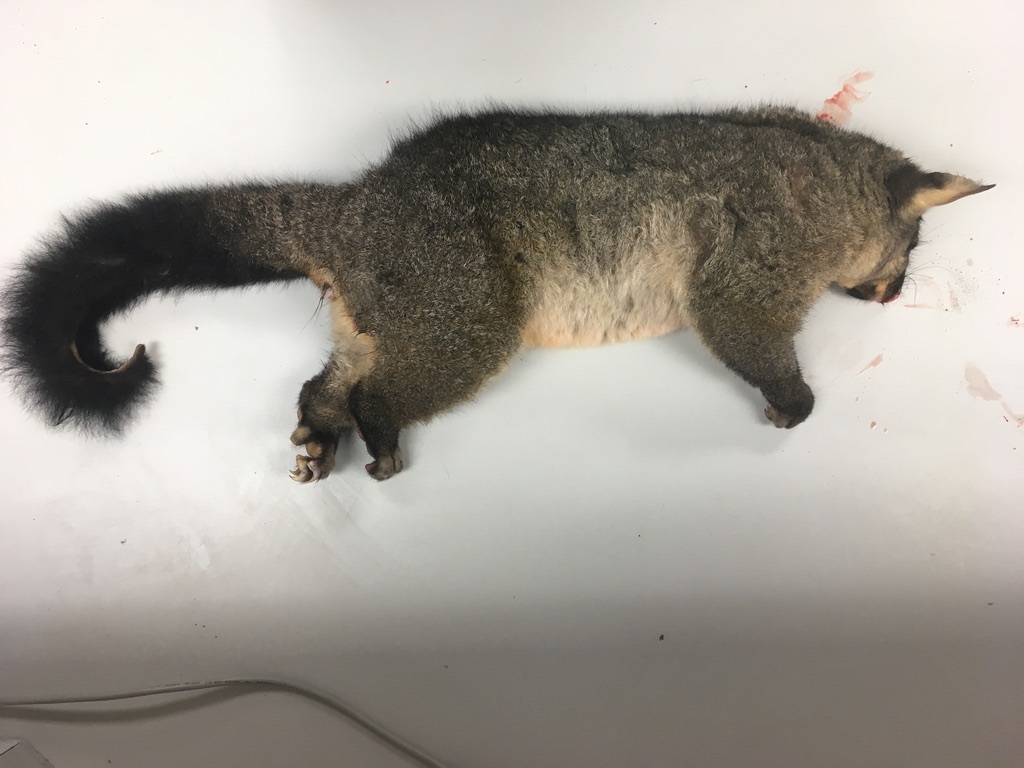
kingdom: Animalia
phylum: Chordata
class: Mammalia
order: Diprotodontia
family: Phalangeridae
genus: Trichosurus
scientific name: Trichosurus vulpecula
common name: Common brushtail
